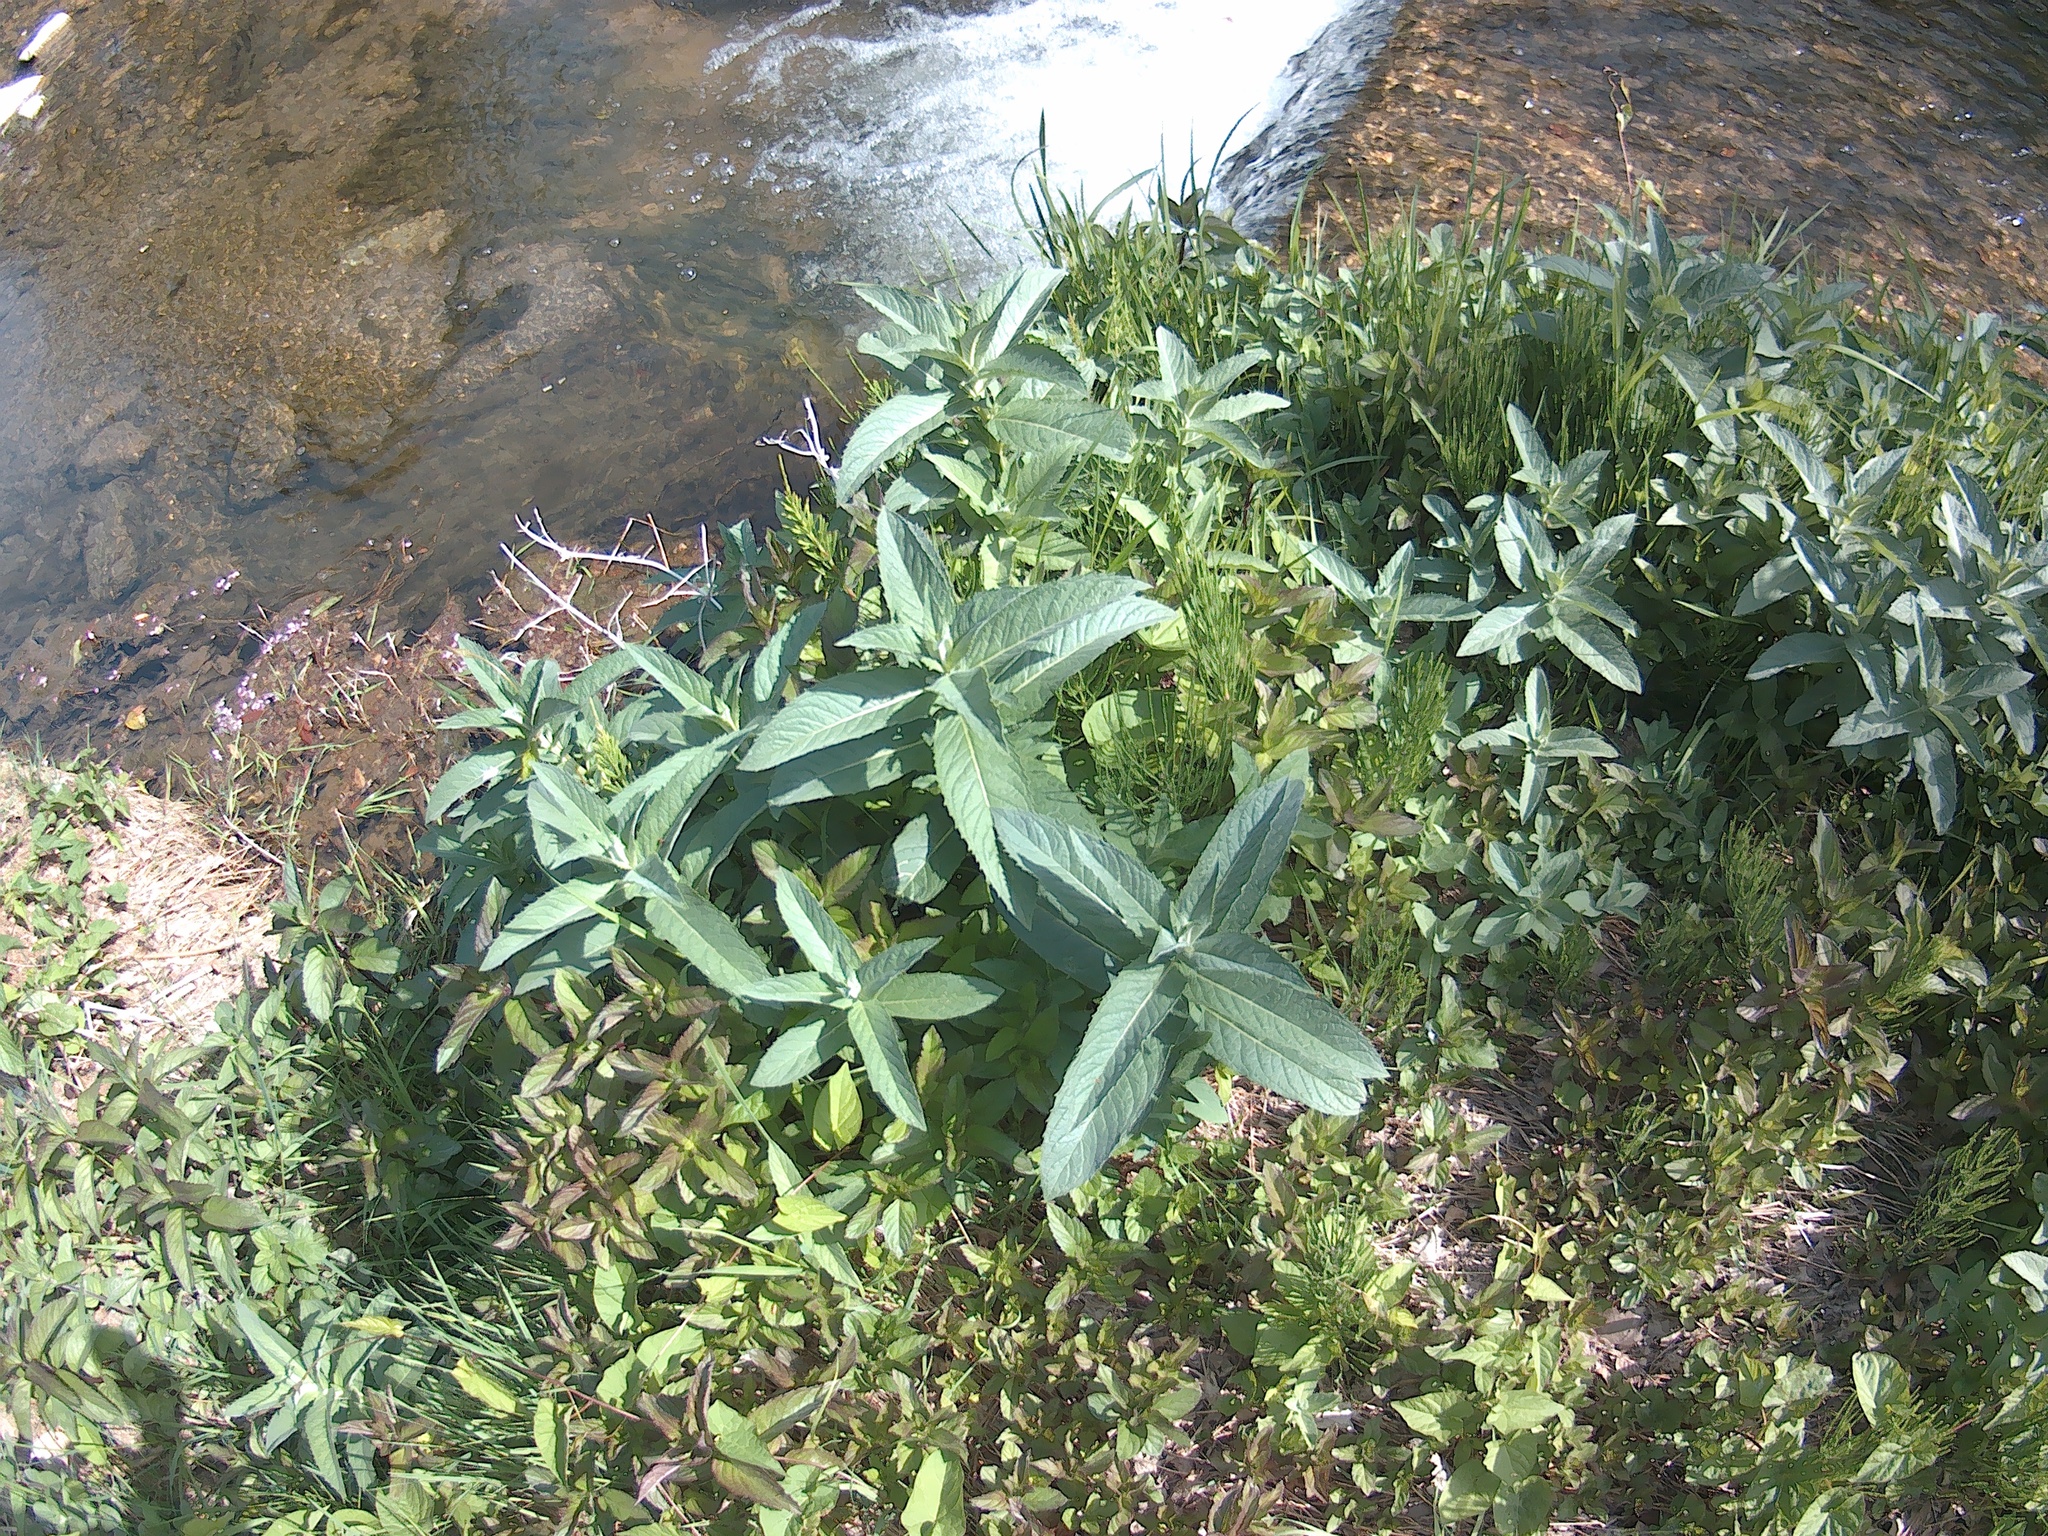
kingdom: Plantae
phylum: Tracheophyta
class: Magnoliopsida
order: Lamiales
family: Lamiaceae
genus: Mentha
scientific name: Mentha longifolia
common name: Horse mint
